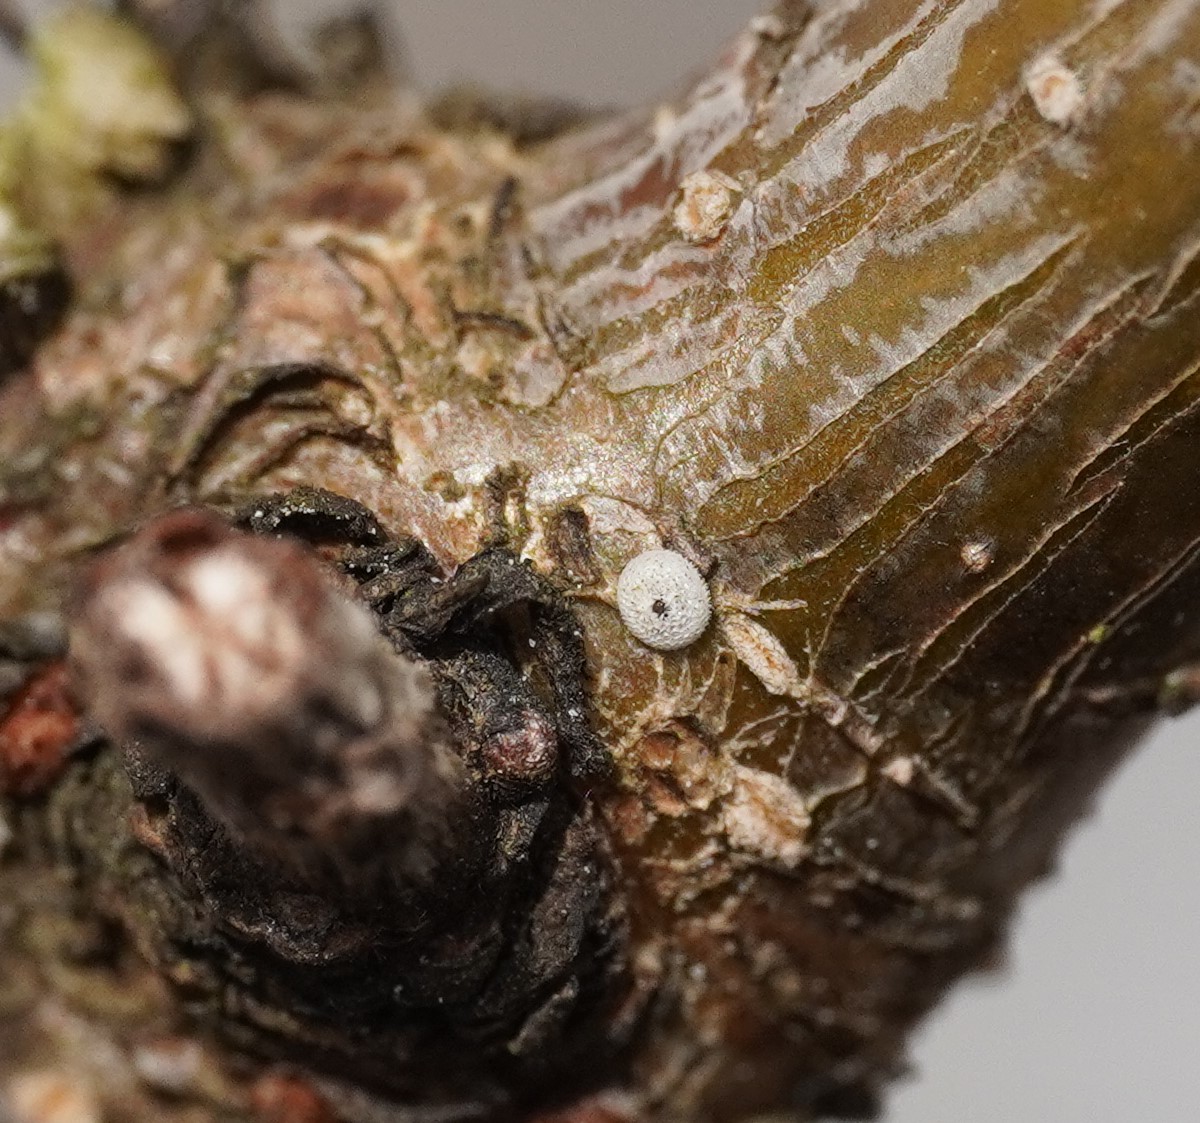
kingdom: Animalia
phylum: Arthropoda
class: Insecta
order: Lepidoptera
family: Lycaenidae
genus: Thecla
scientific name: Thecla betulae
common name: Brown hairstreak
